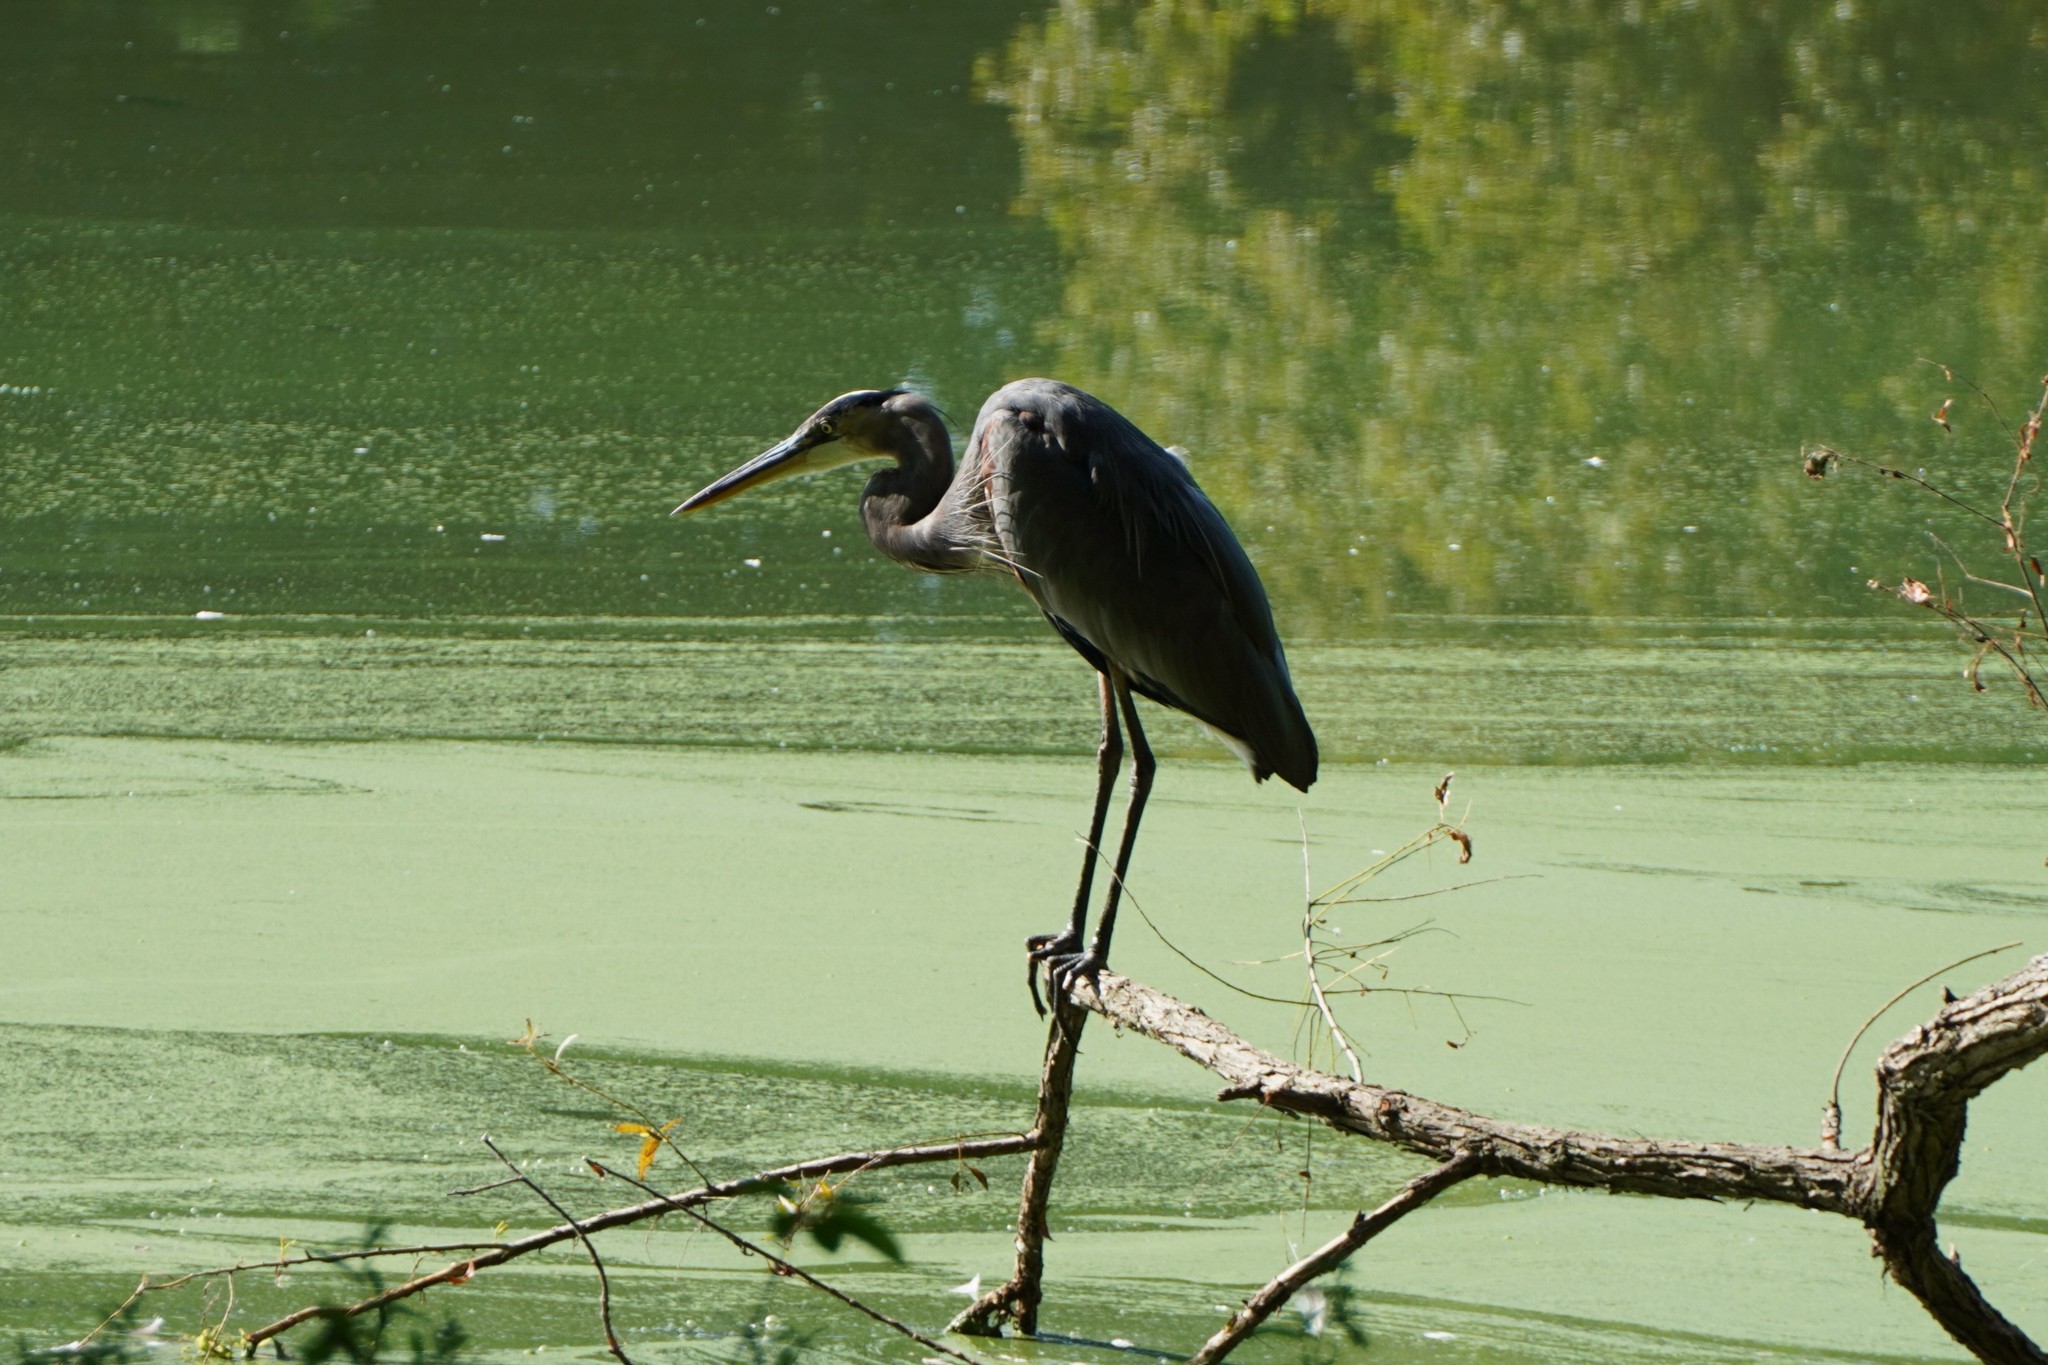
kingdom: Animalia
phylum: Chordata
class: Aves
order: Pelecaniformes
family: Ardeidae
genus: Ardea
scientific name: Ardea herodias
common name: Great blue heron
